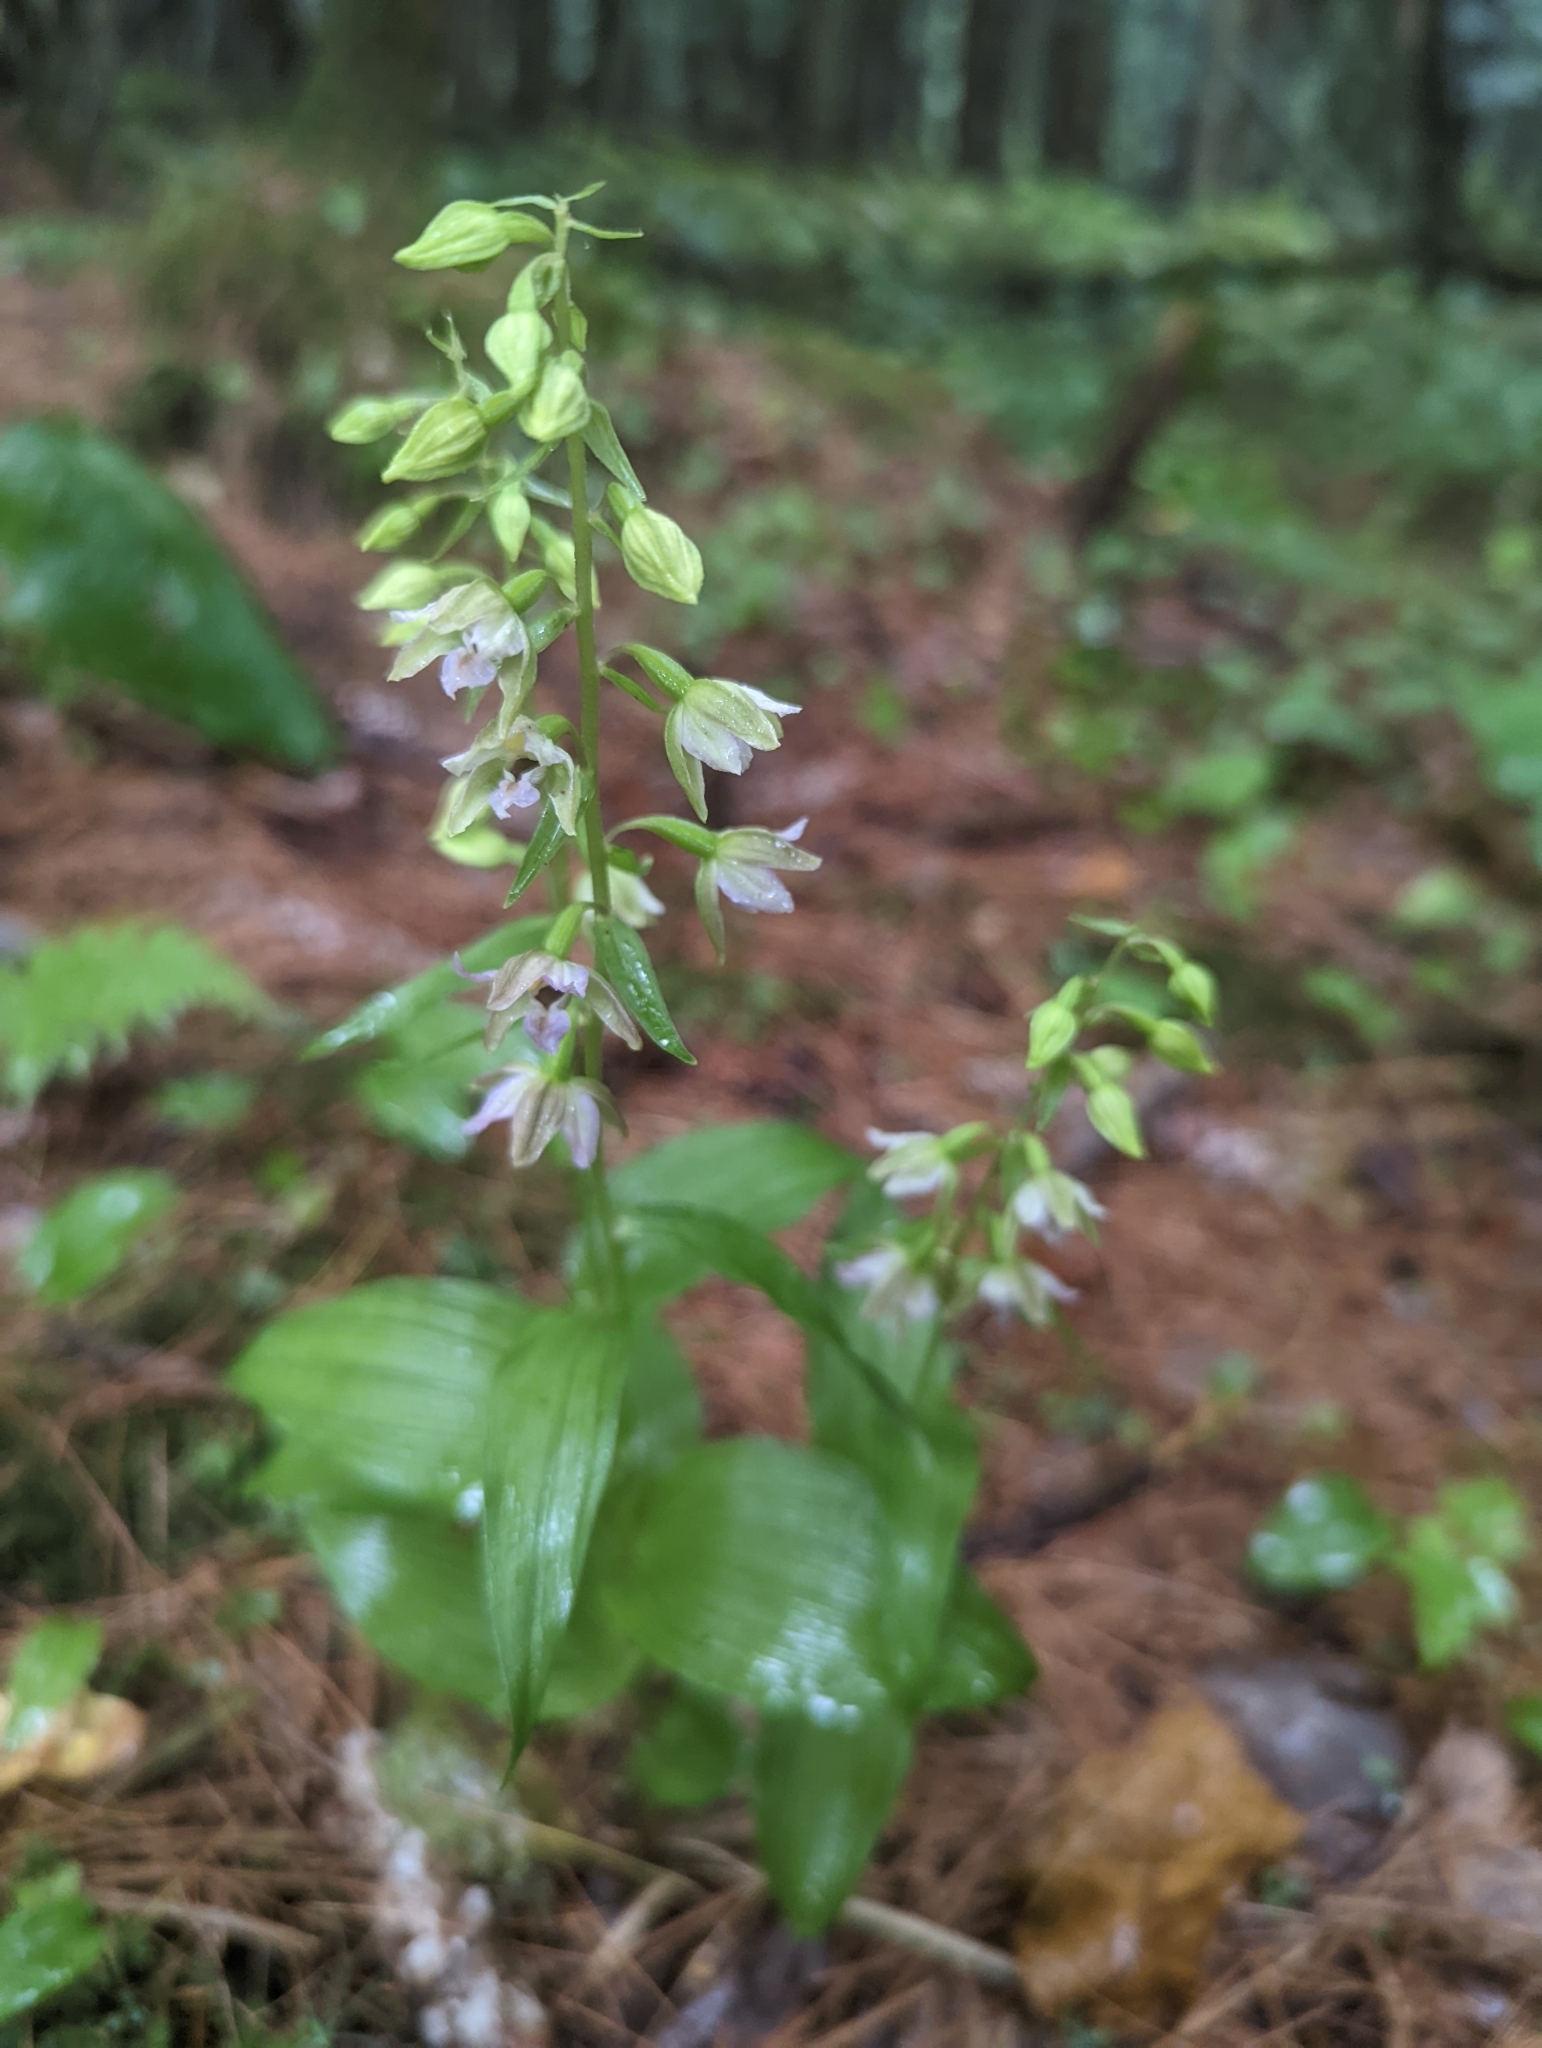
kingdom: Plantae
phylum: Tracheophyta
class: Liliopsida
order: Asparagales
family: Orchidaceae
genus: Epipactis
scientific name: Epipactis helleborine
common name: Broad-leaved helleborine
